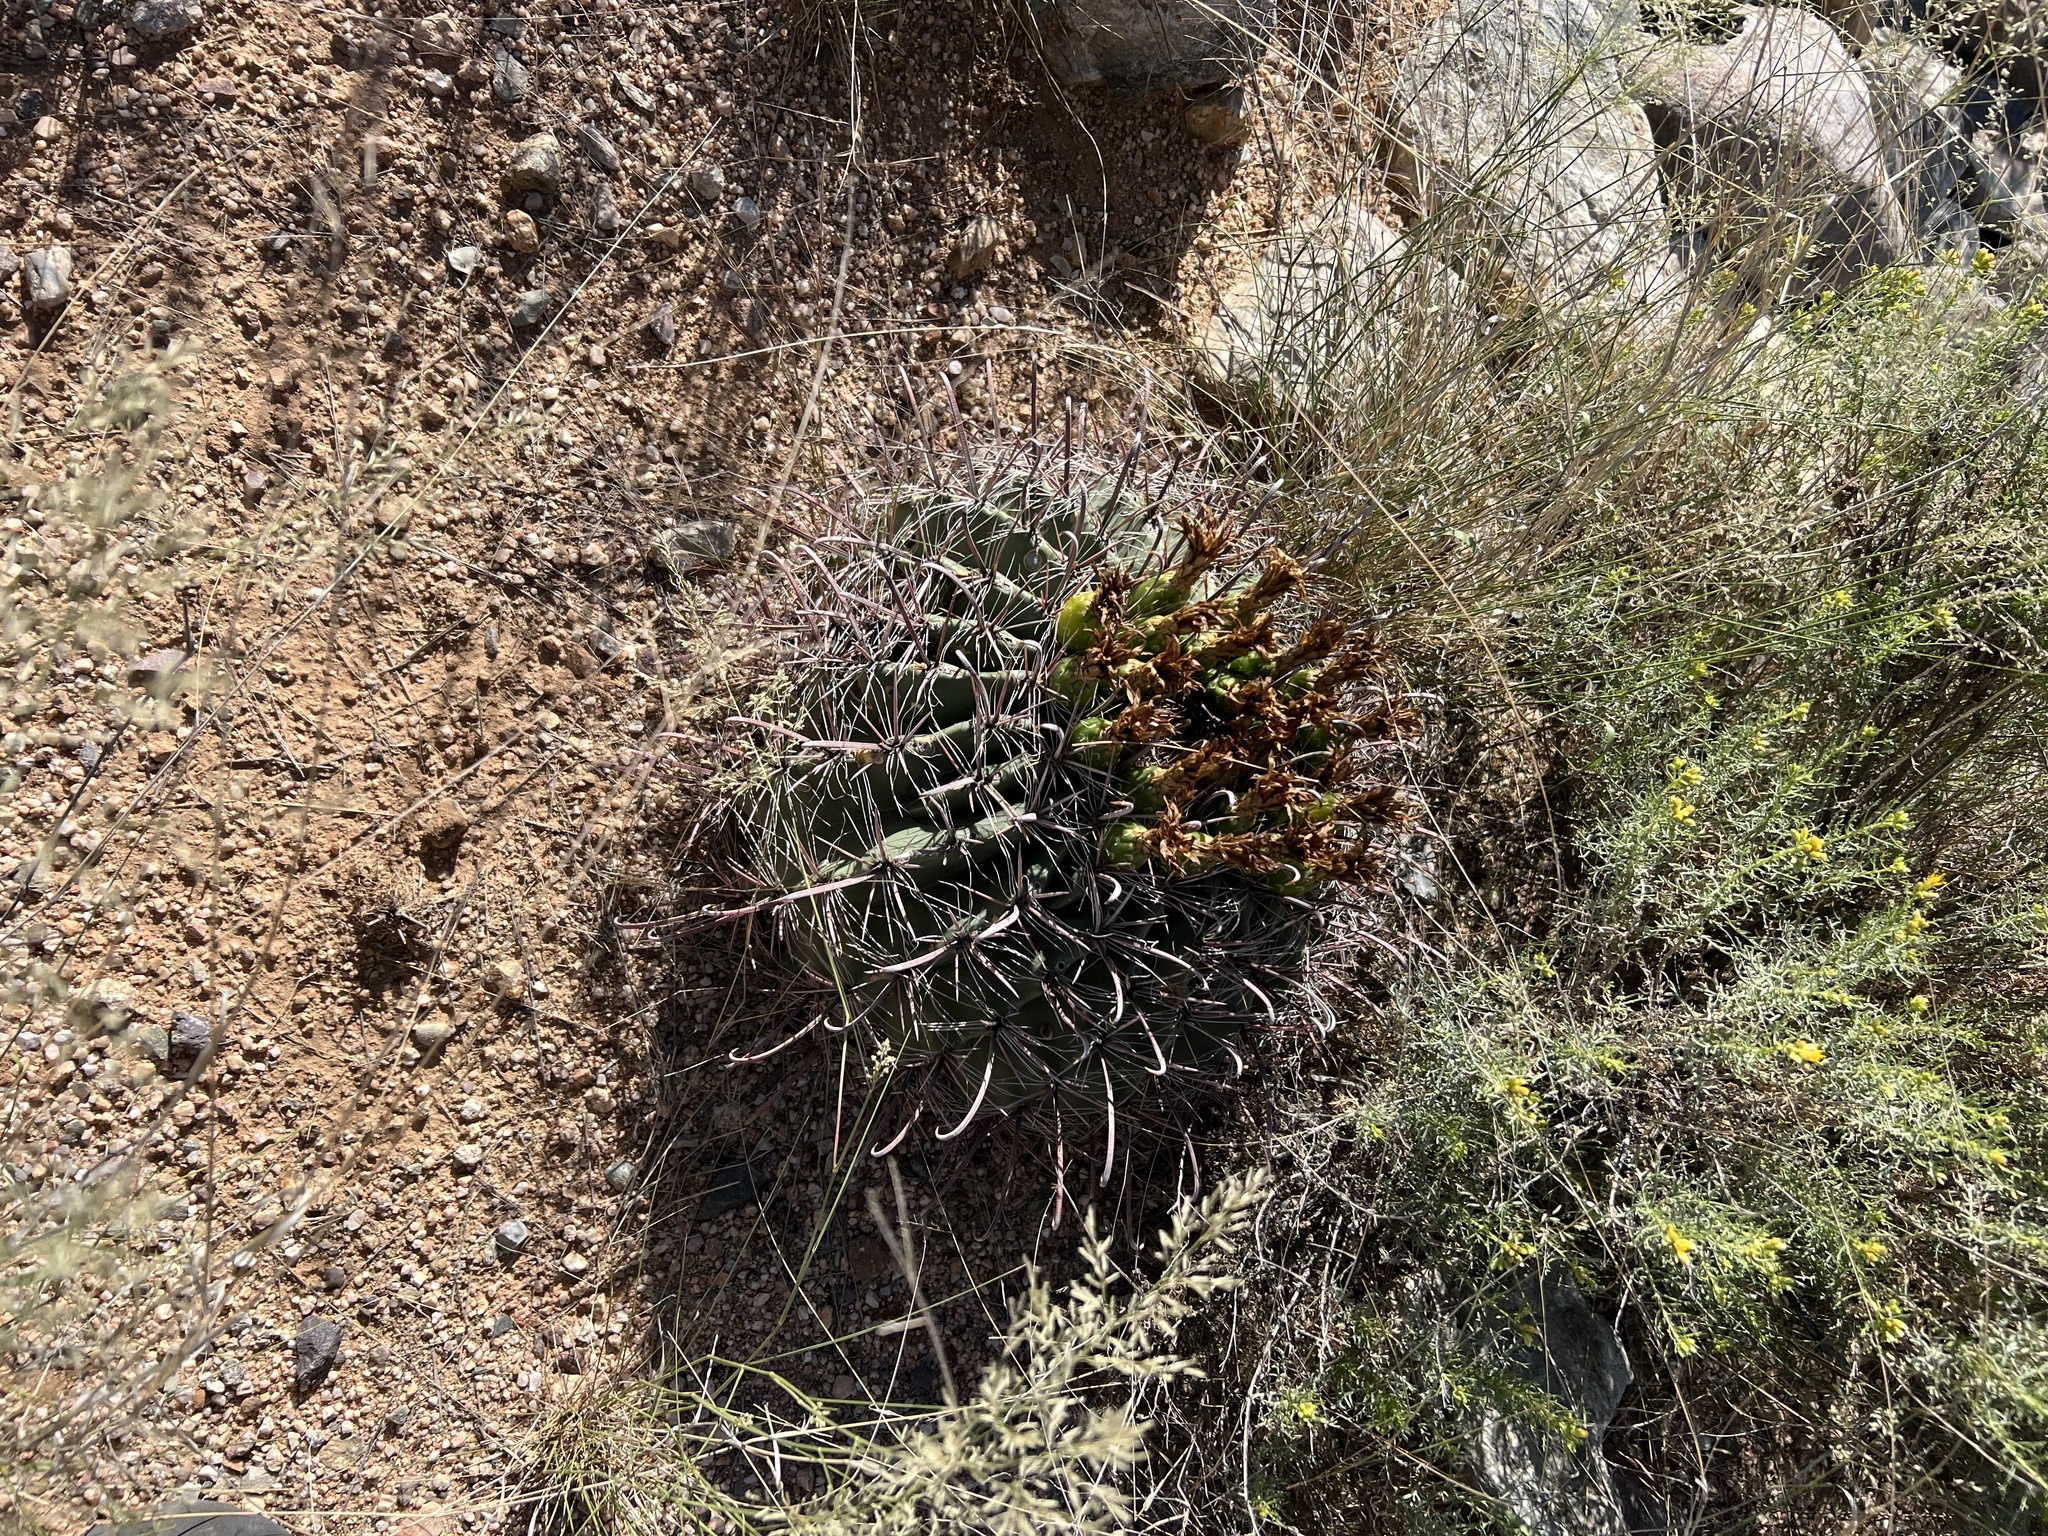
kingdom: Plantae
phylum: Tracheophyta
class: Magnoliopsida
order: Caryophyllales
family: Cactaceae
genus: Ferocactus
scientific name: Ferocactus wislizeni
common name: Candy barrel cactus
